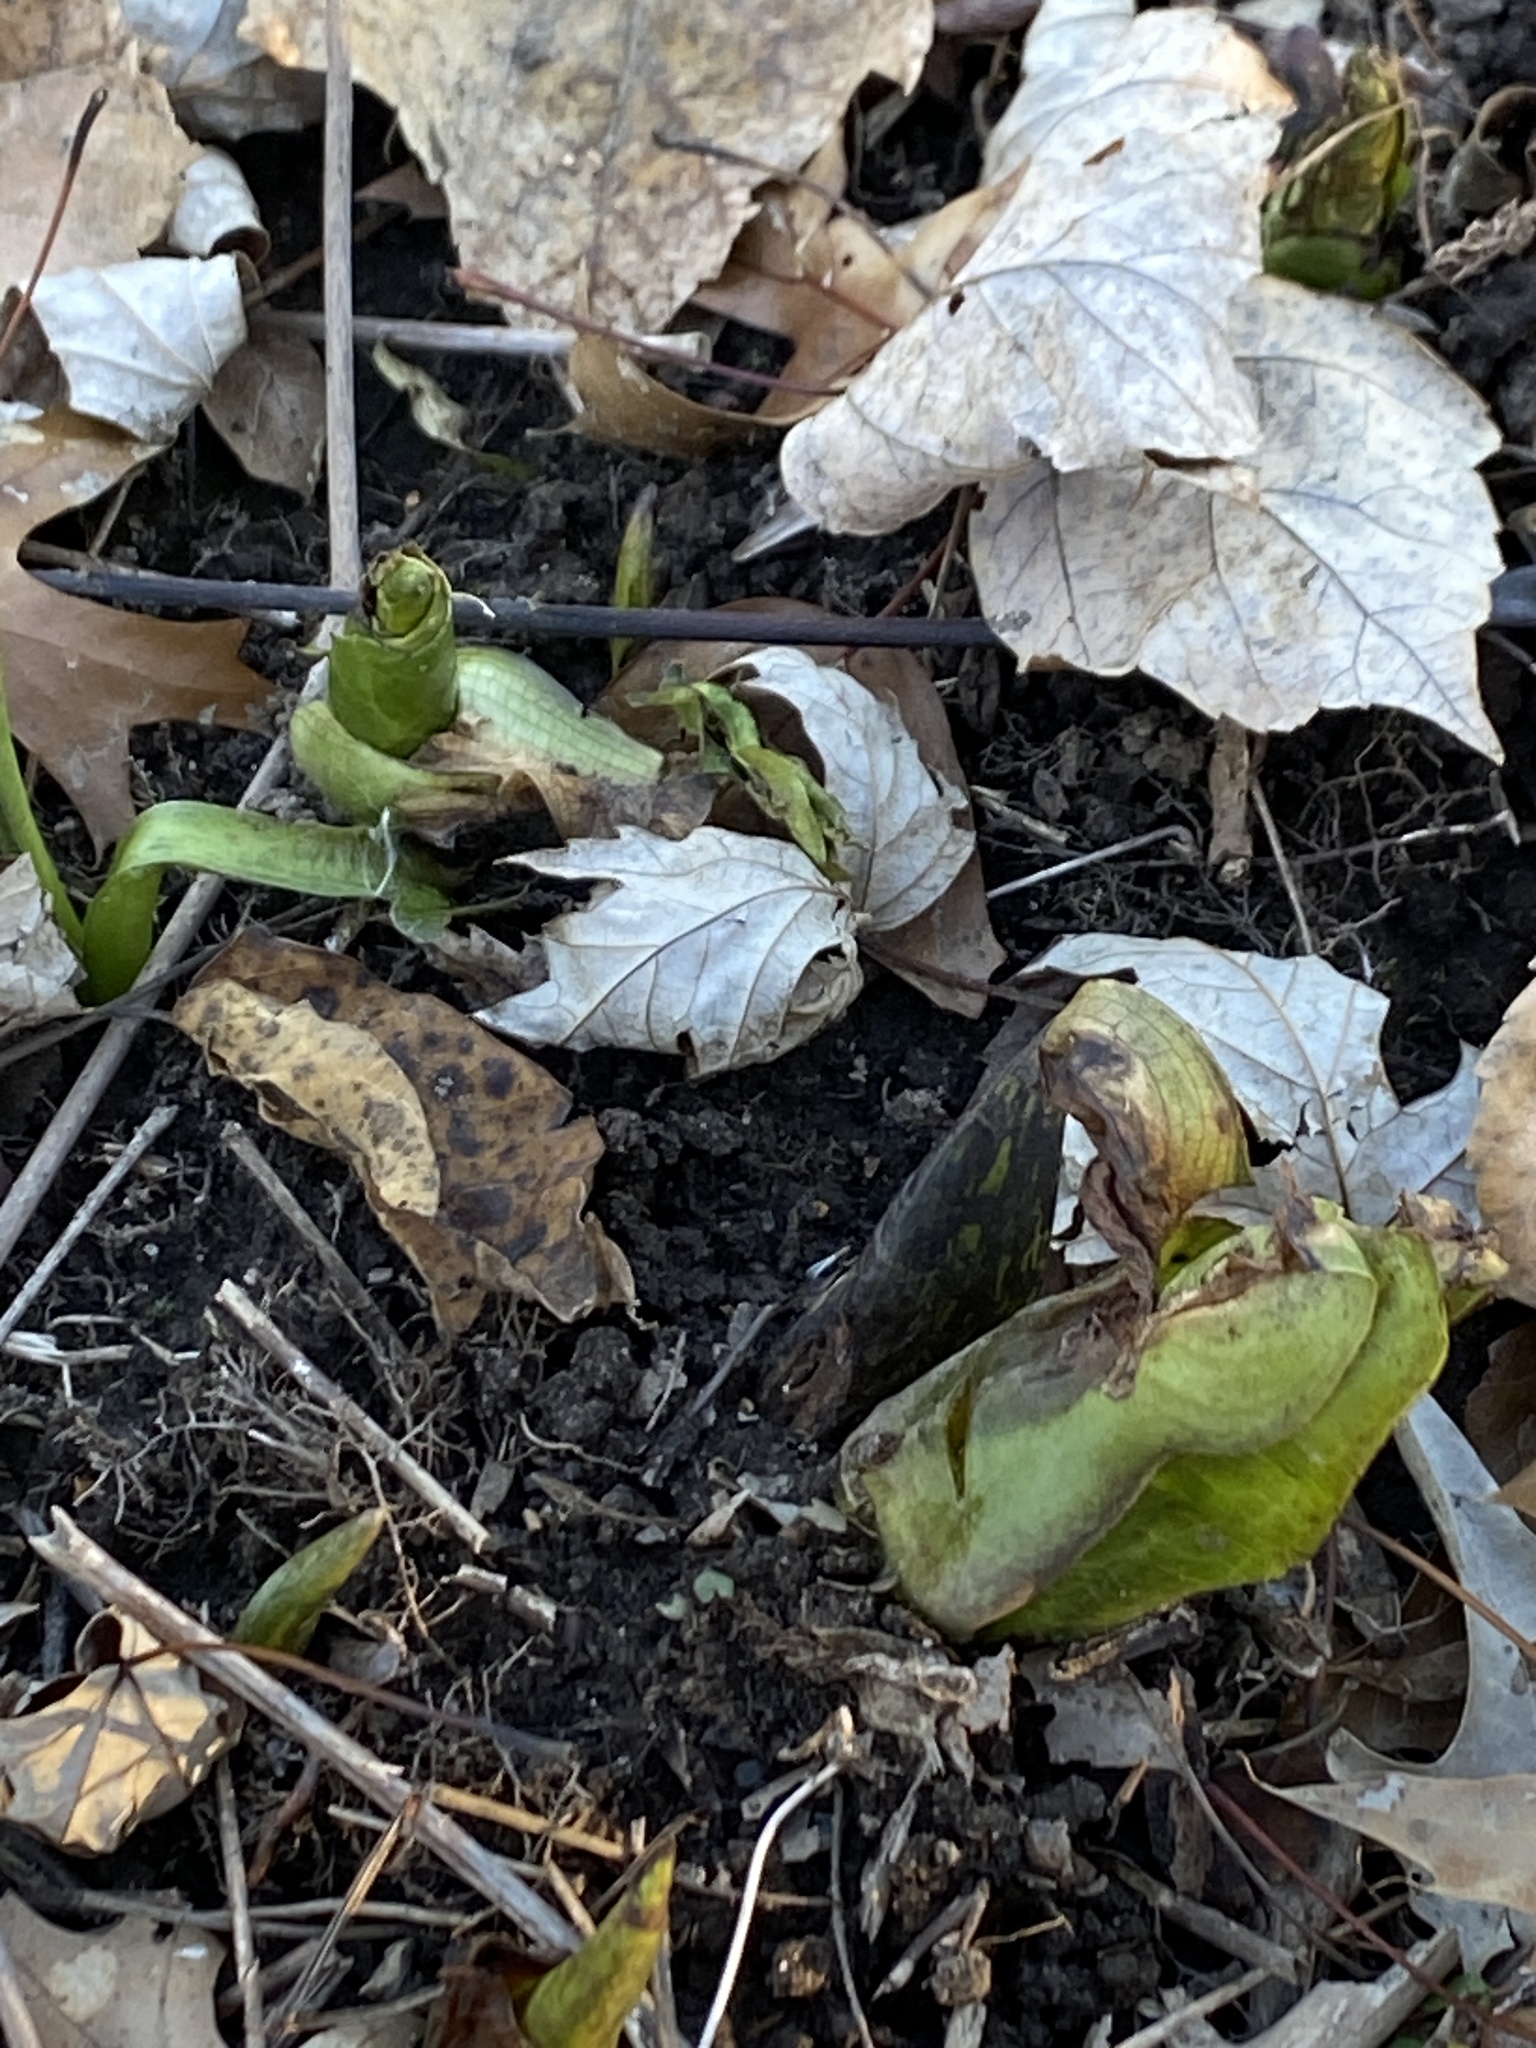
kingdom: Plantae
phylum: Tracheophyta
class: Liliopsida
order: Alismatales
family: Araceae
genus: Symplocarpus
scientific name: Symplocarpus foetidus
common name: Eastern skunk cabbage
